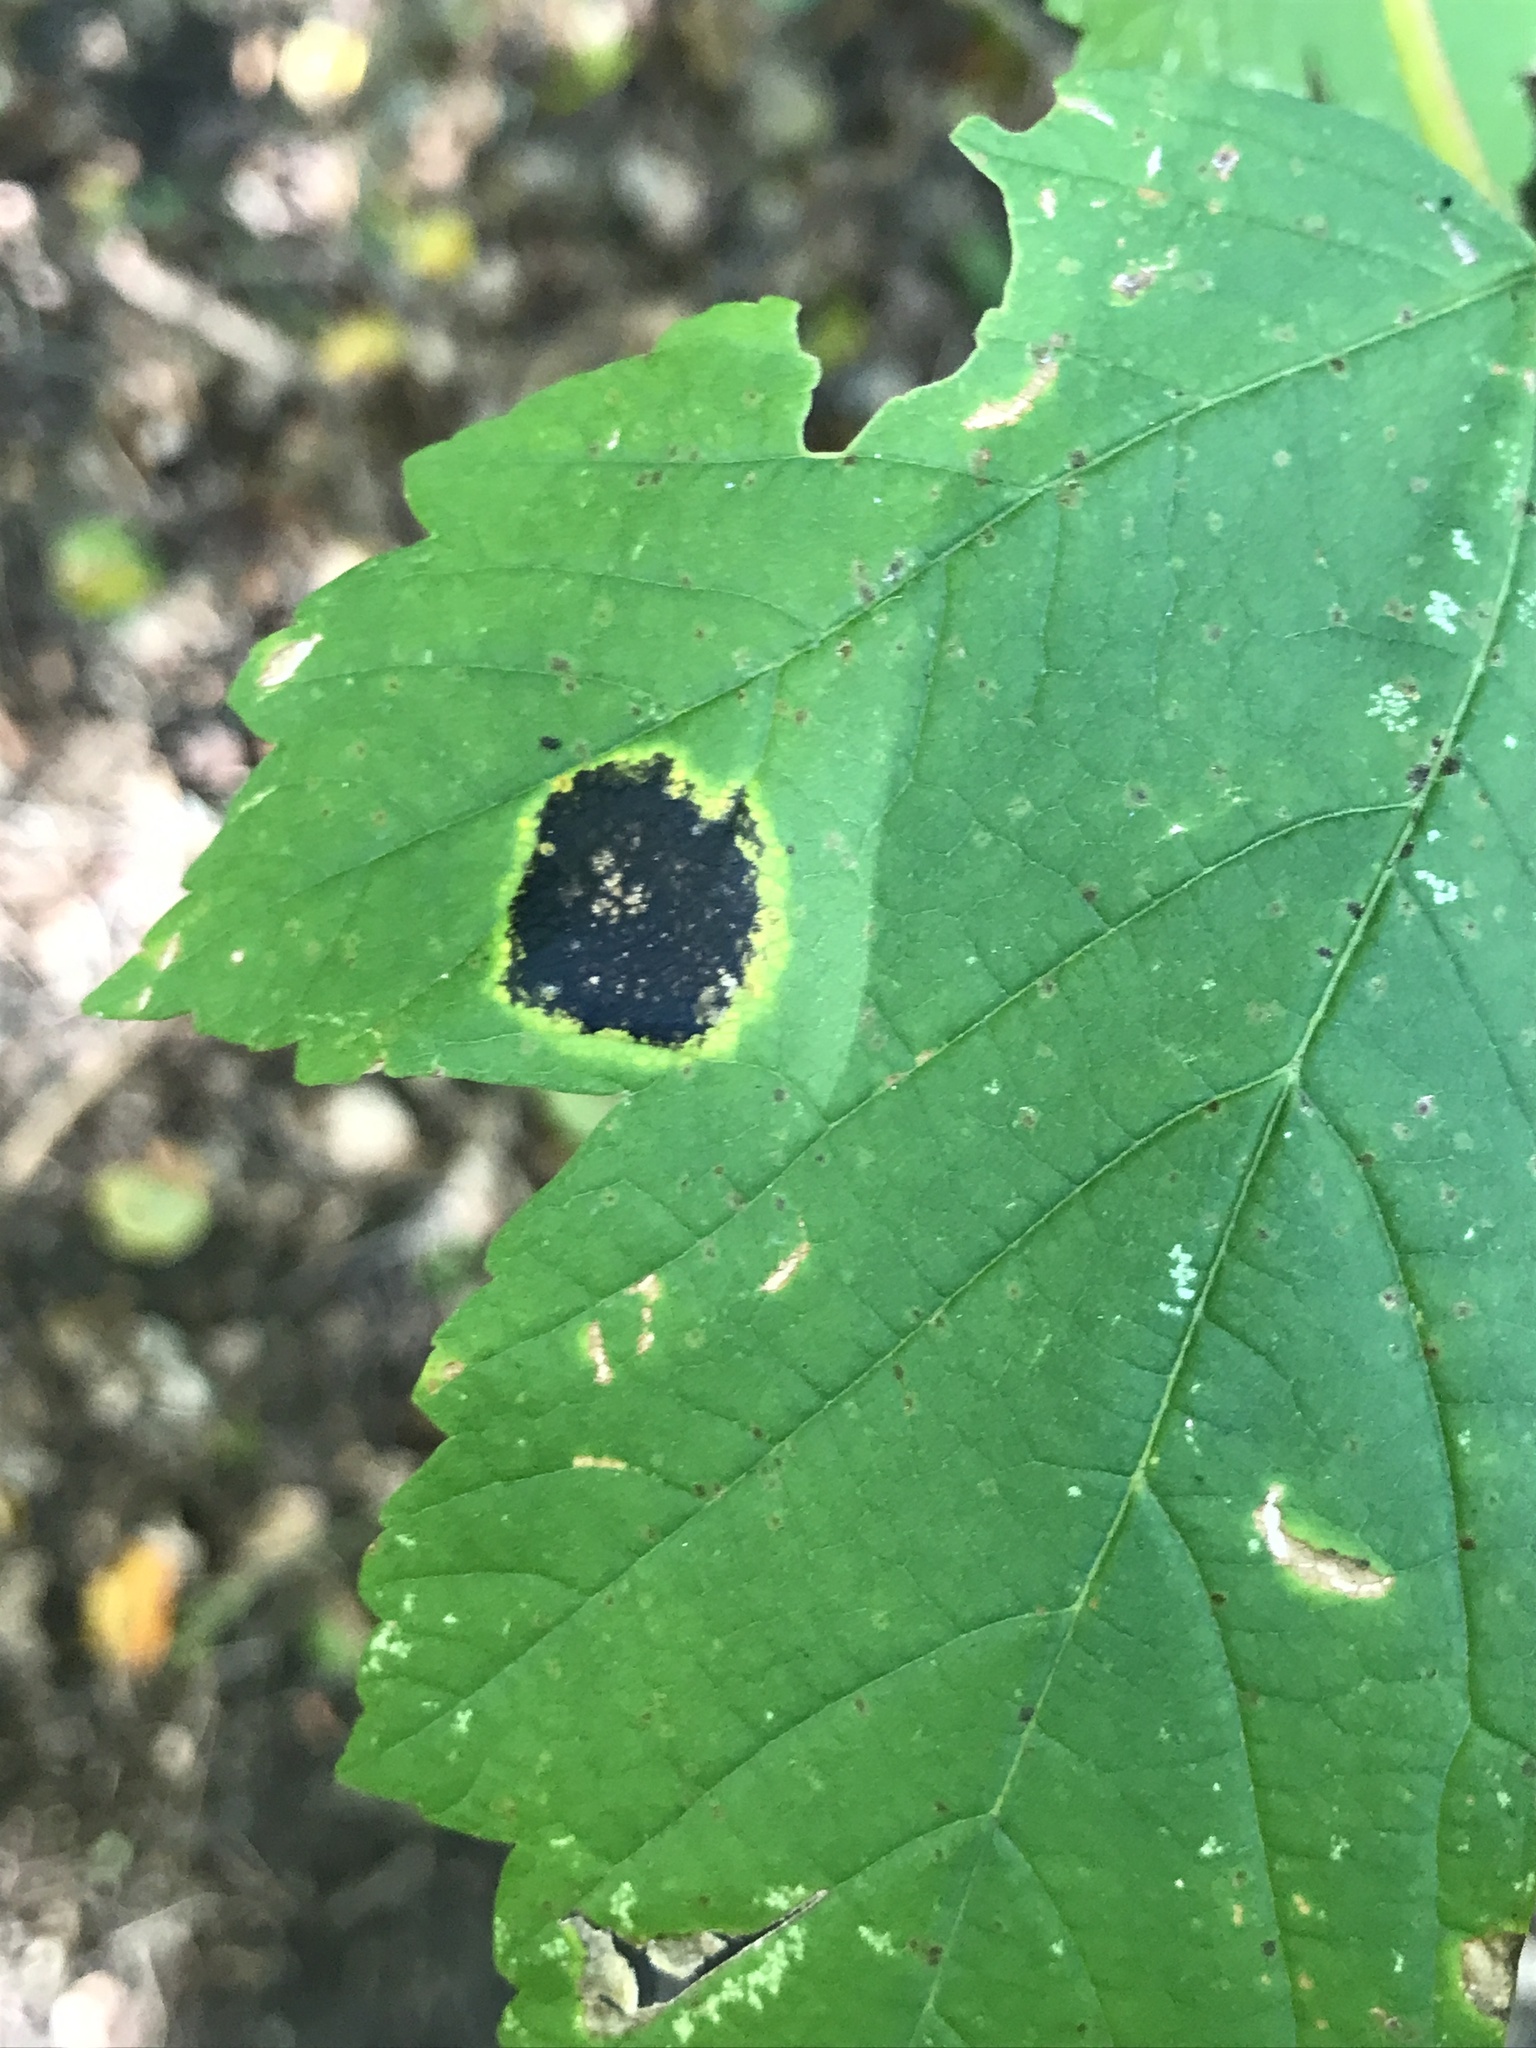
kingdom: Fungi
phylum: Ascomycota
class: Leotiomycetes
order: Rhytismatales
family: Rhytismataceae
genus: Rhytisma
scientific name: Rhytisma acerinum
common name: European tar spot
